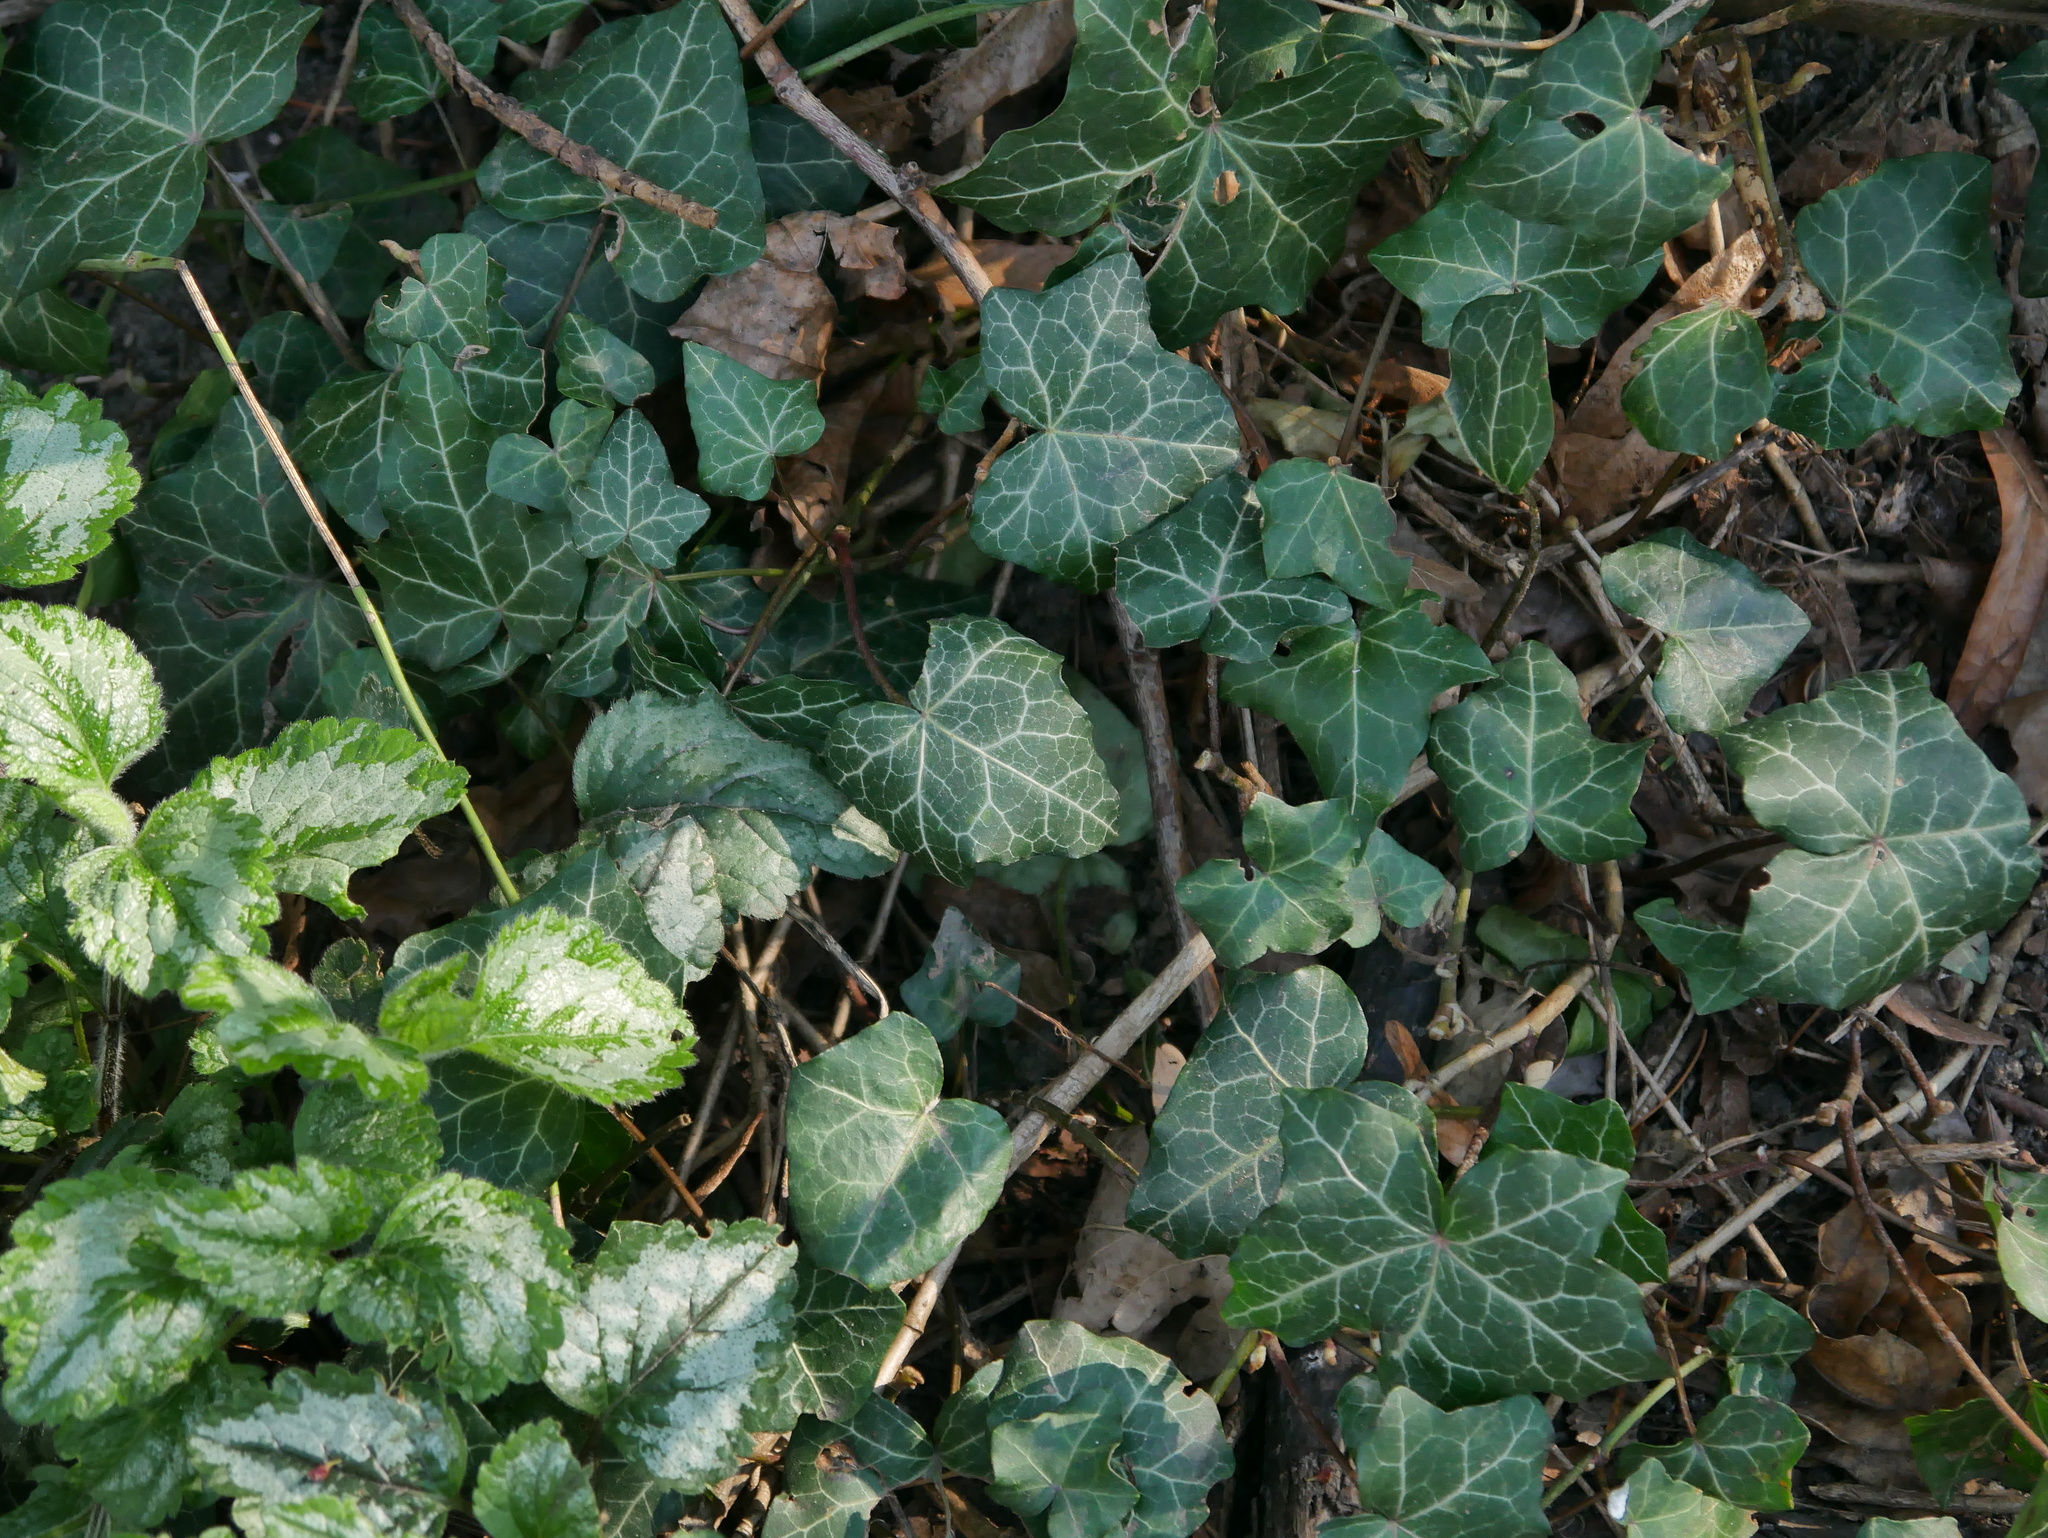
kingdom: Plantae
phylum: Tracheophyta
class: Magnoliopsida
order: Apiales
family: Araliaceae
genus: Hedera
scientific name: Hedera helix
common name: Ivy
